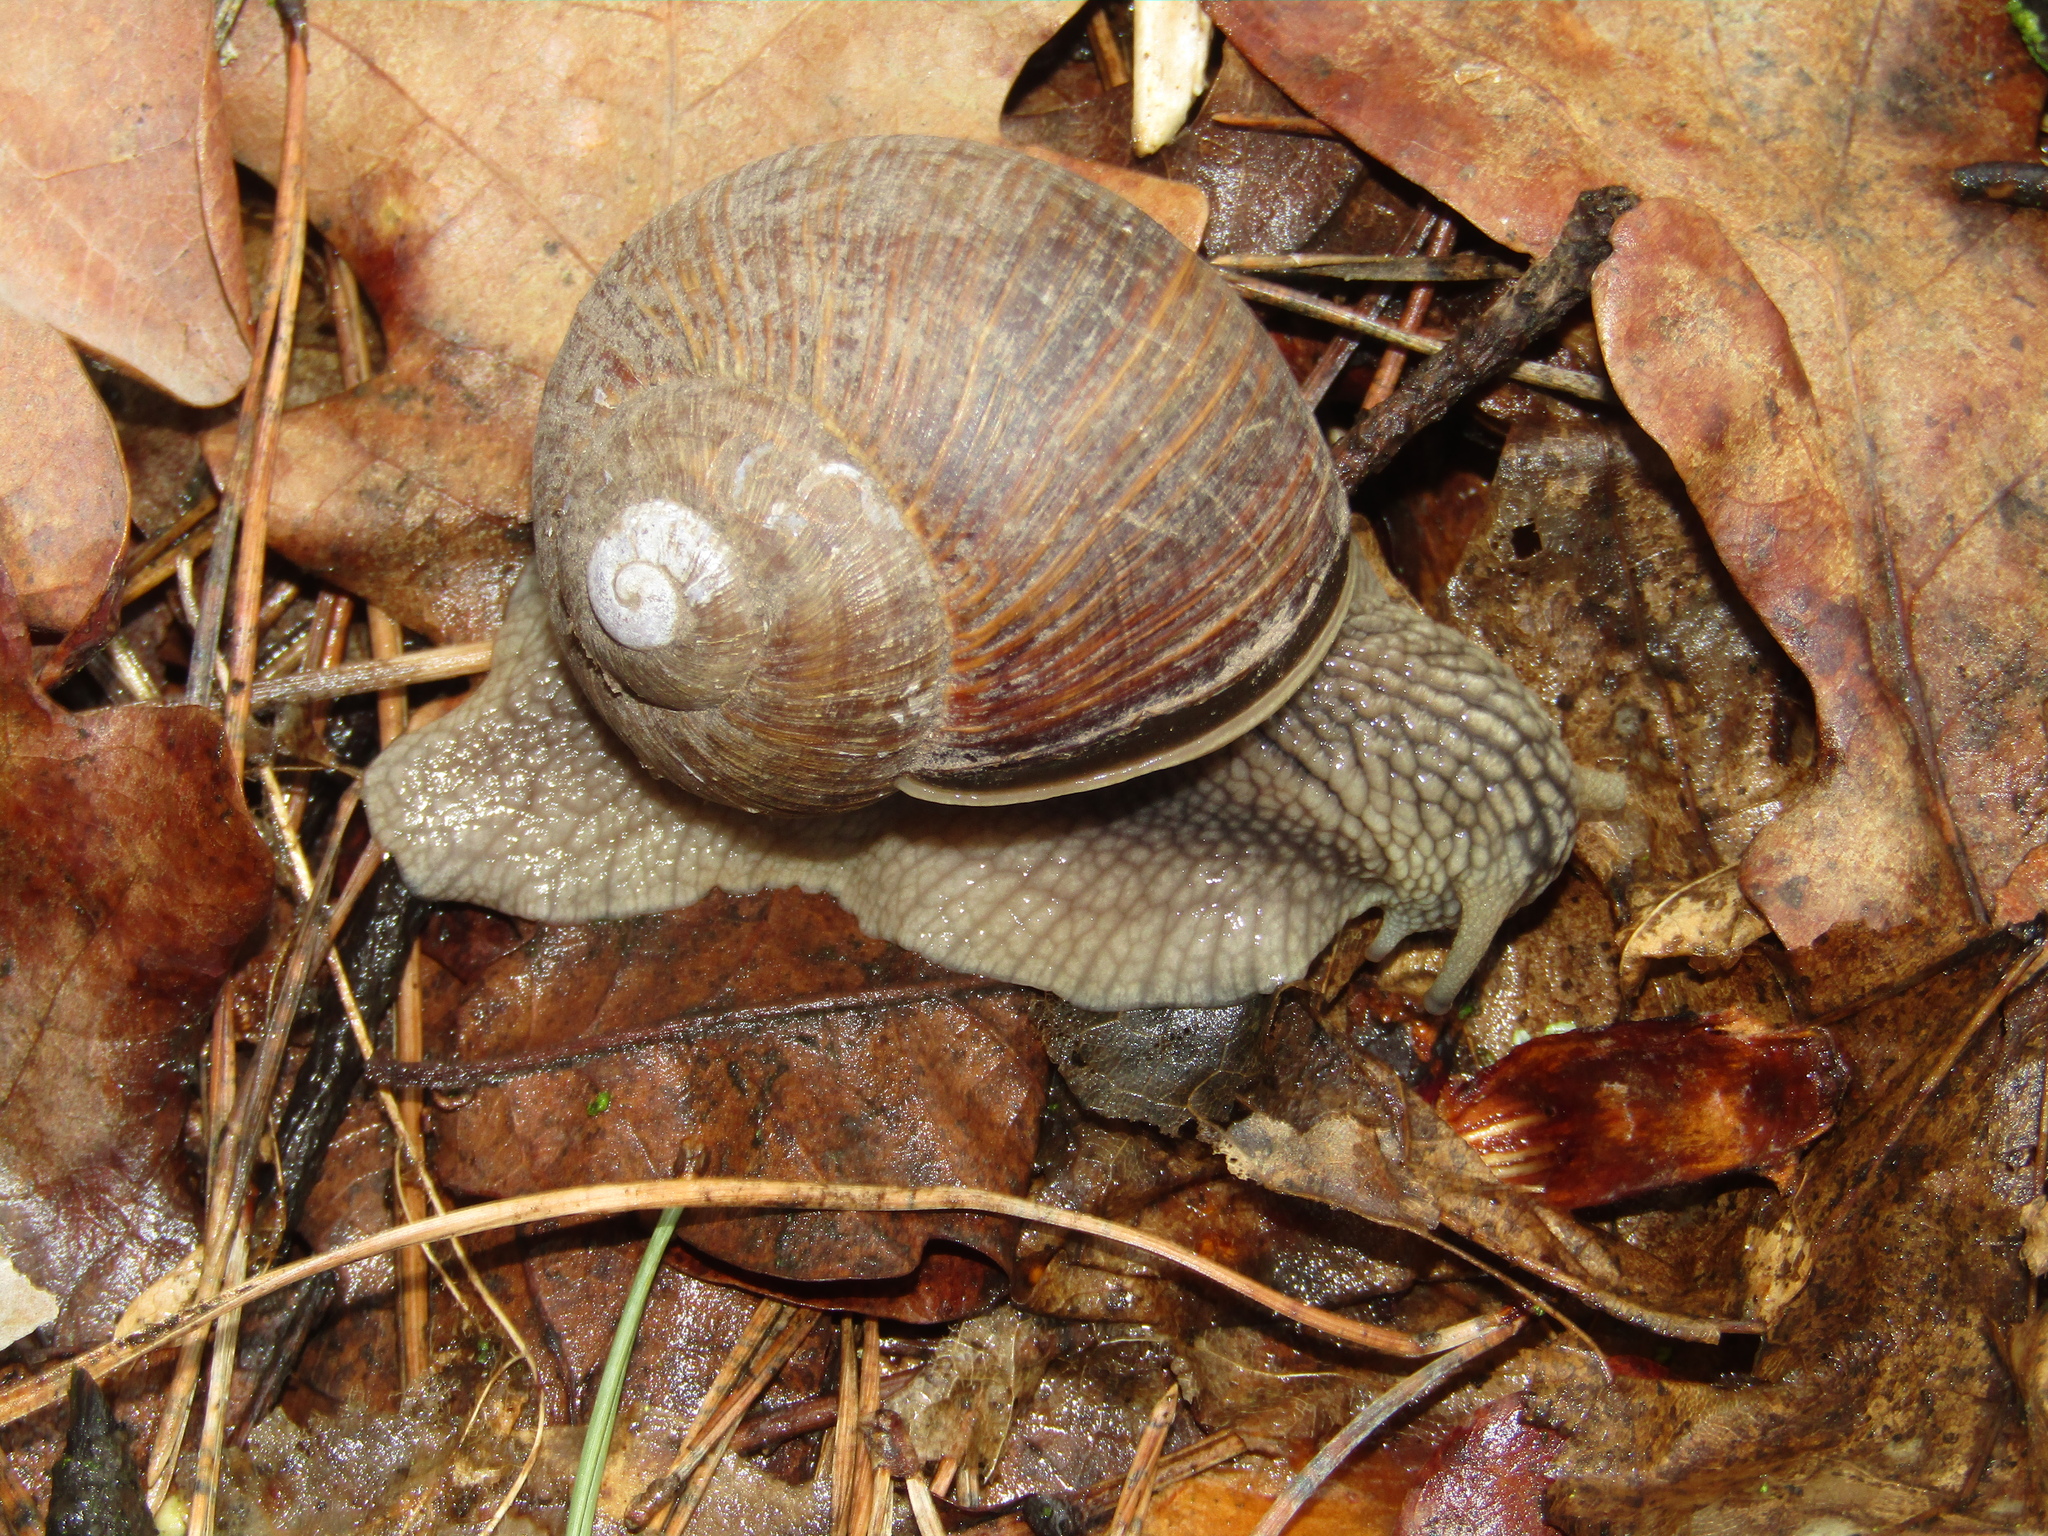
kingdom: Animalia
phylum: Mollusca
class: Gastropoda
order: Stylommatophora
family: Helicidae
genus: Helix
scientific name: Helix pomatia
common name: Roman snail
